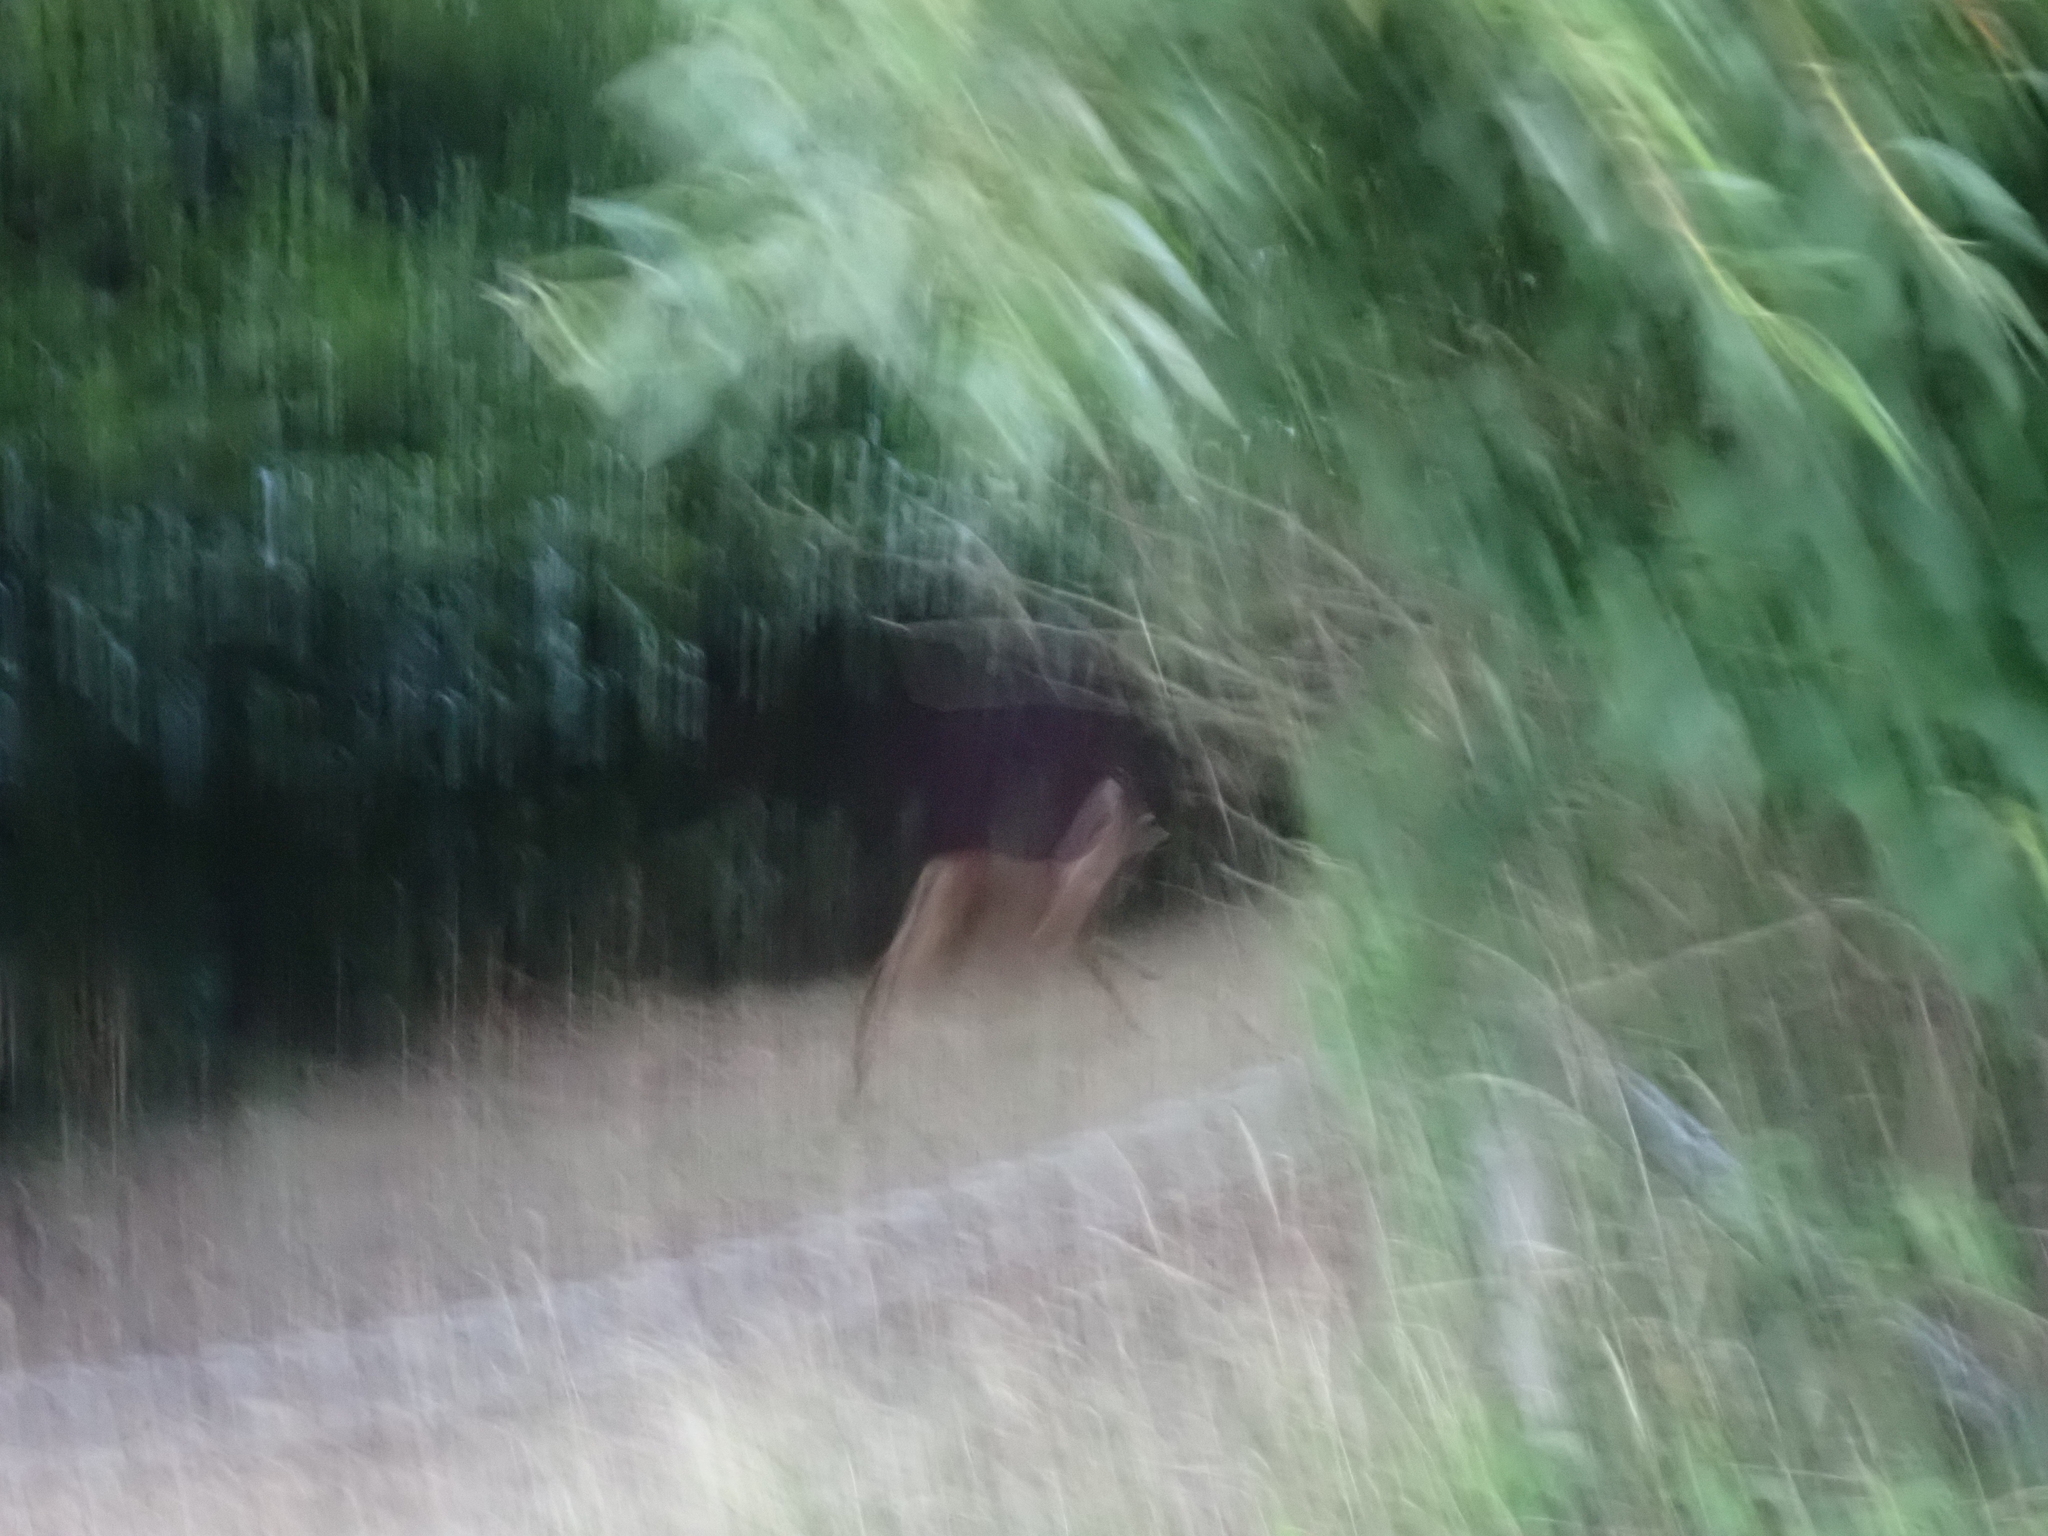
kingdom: Animalia
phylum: Chordata
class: Mammalia
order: Artiodactyla
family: Cervidae
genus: Capreolus
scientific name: Capreolus capreolus
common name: Western roe deer
